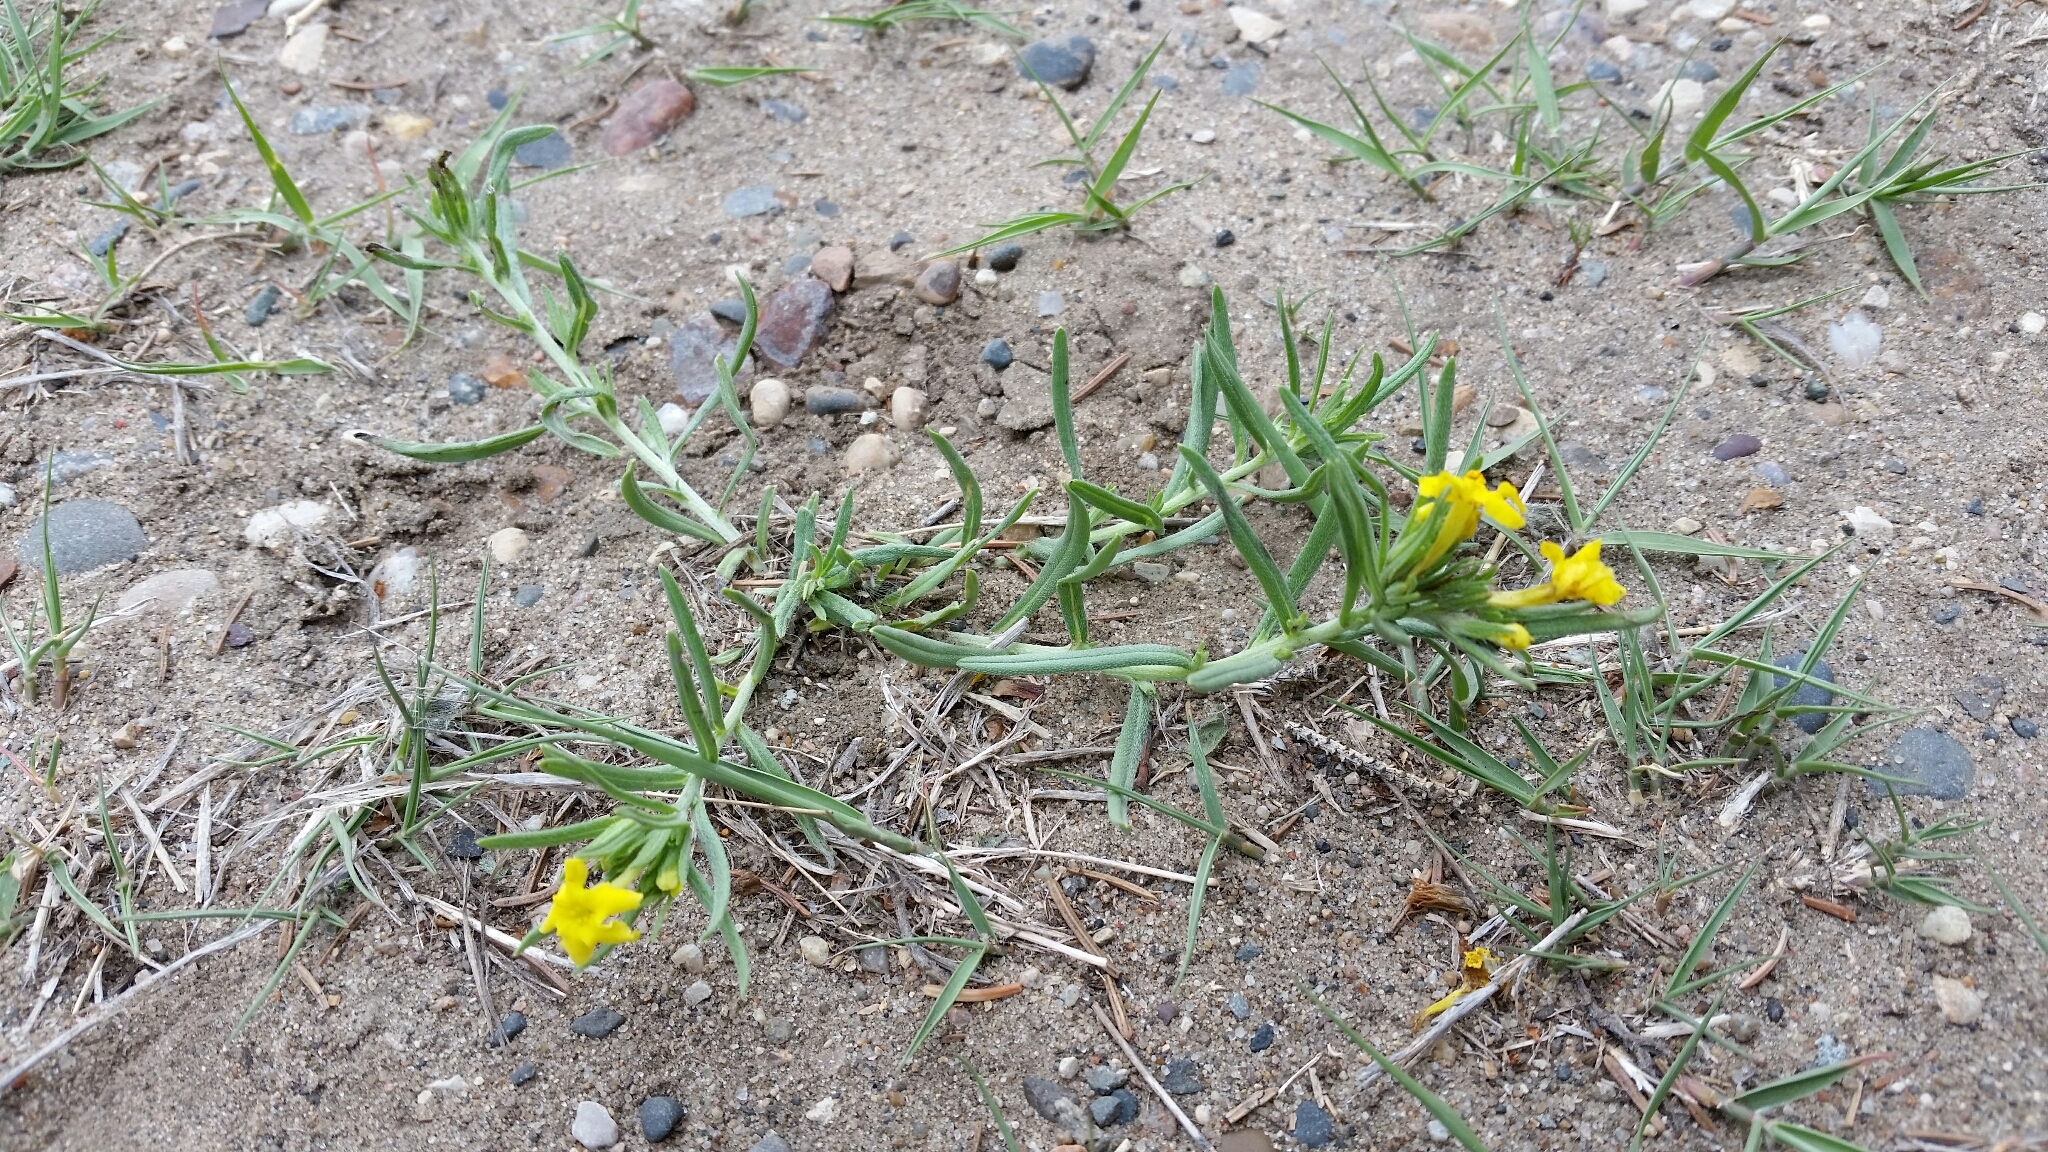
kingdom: Plantae
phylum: Tracheophyta
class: Magnoliopsida
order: Boraginales
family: Boraginaceae
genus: Lithospermum
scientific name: Lithospermum incisum
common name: Fringed gromwell
